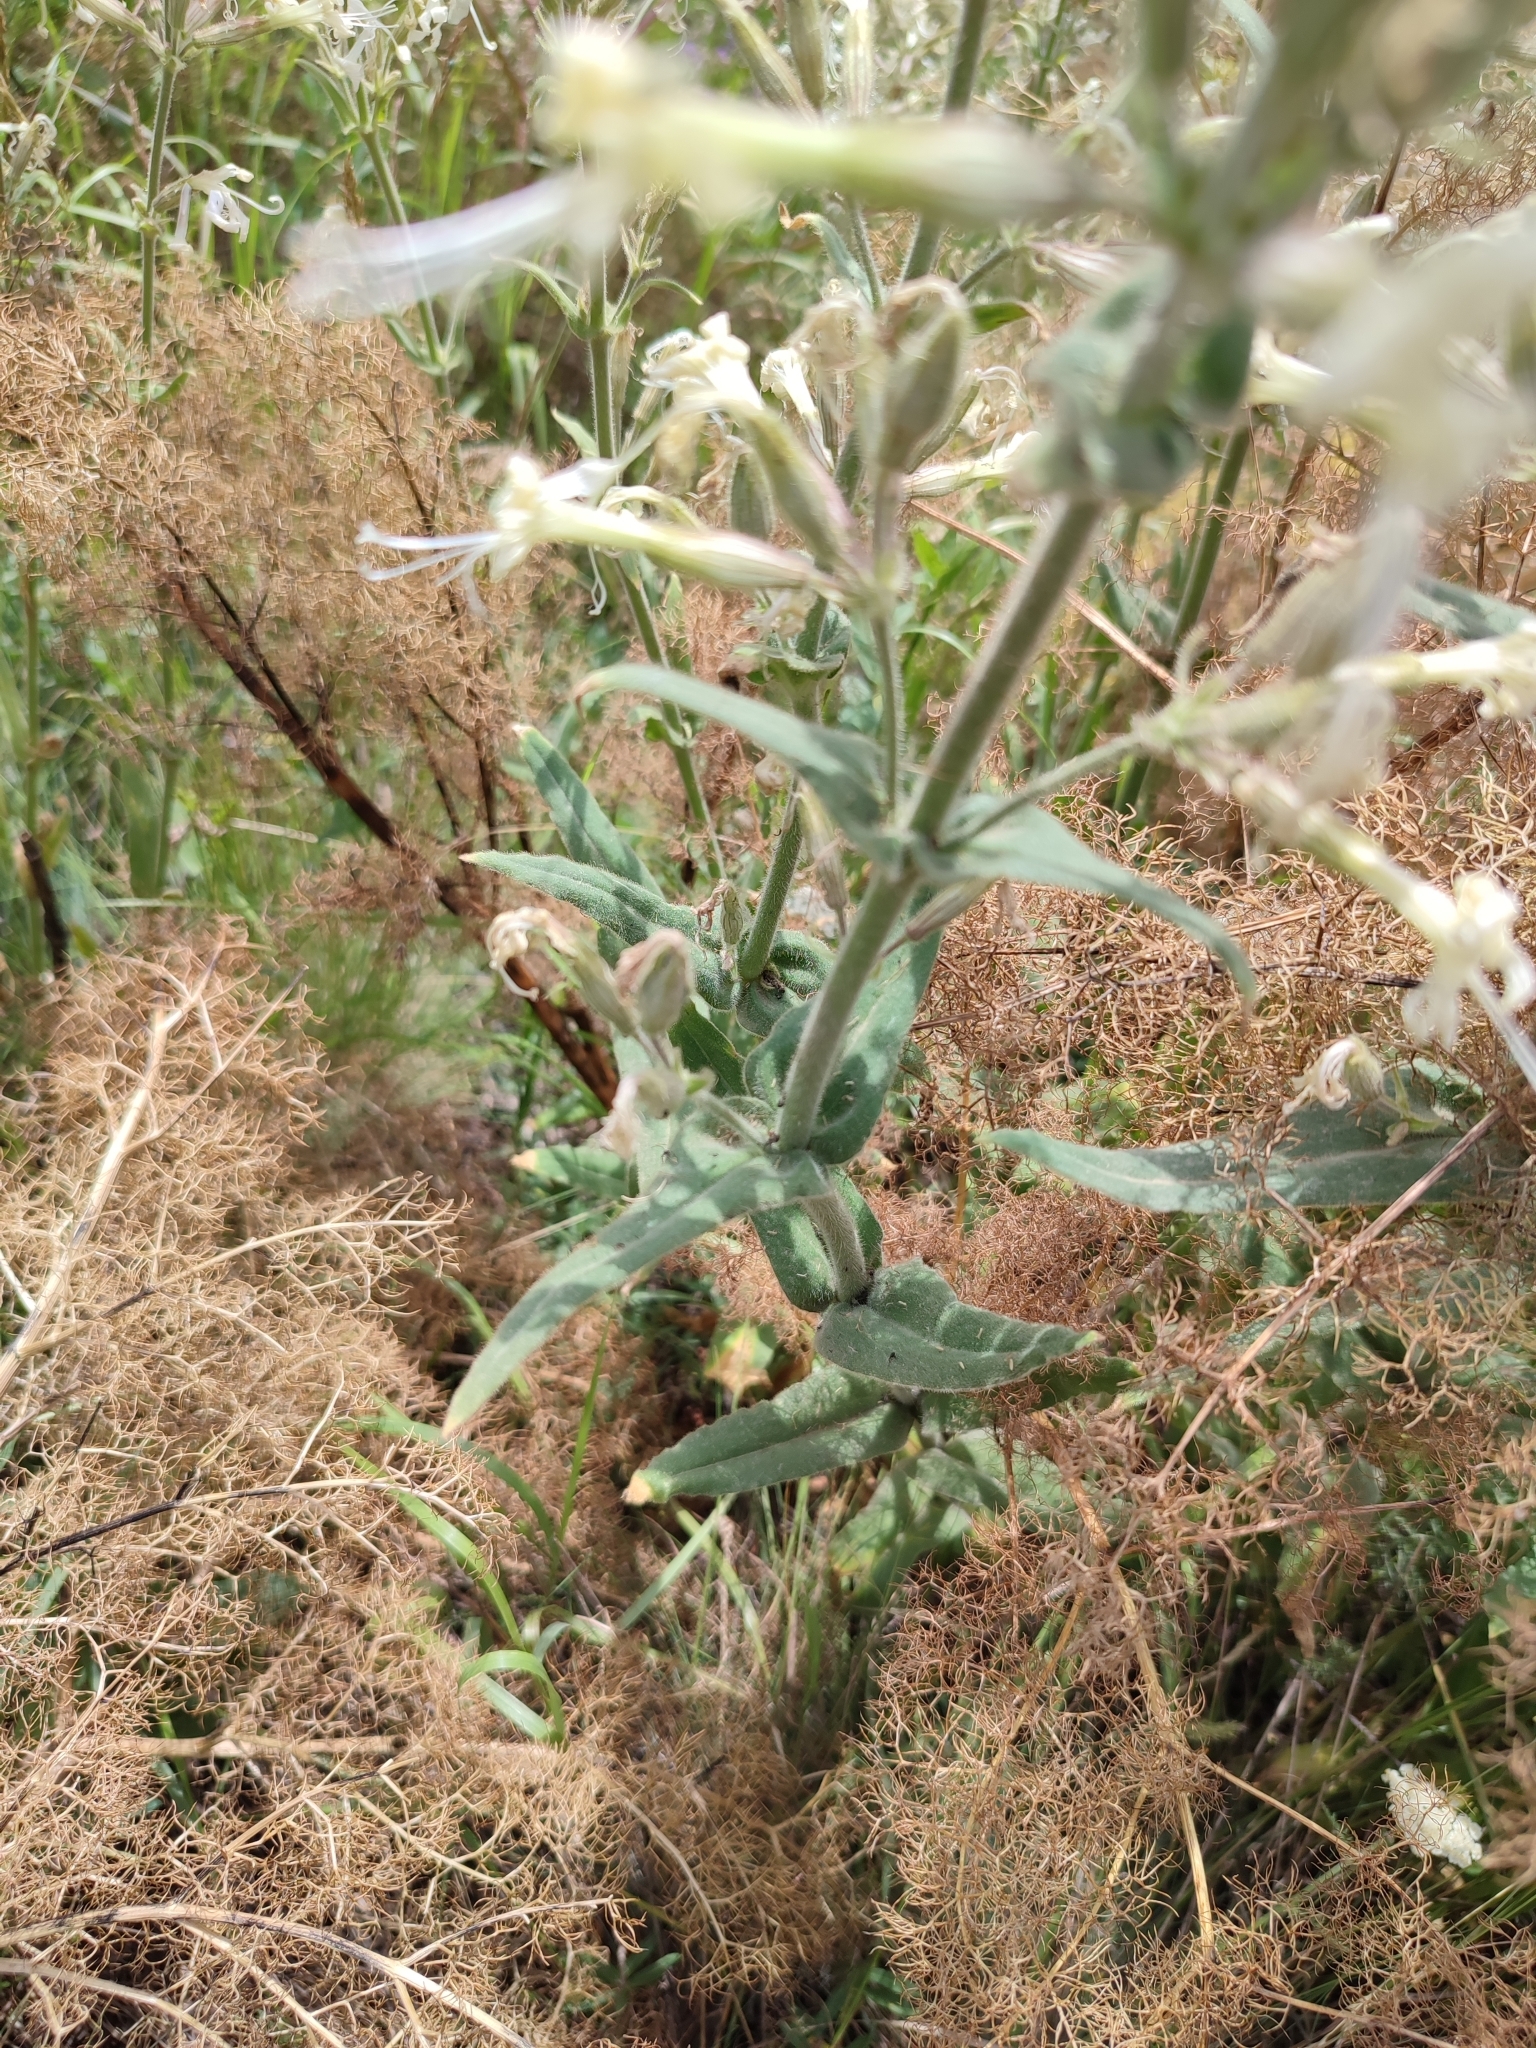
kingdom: Plantae
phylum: Tracheophyta
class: Magnoliopsida
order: Caryophyllales
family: Caryophyllaceae
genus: Silene
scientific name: Silene viscosa
